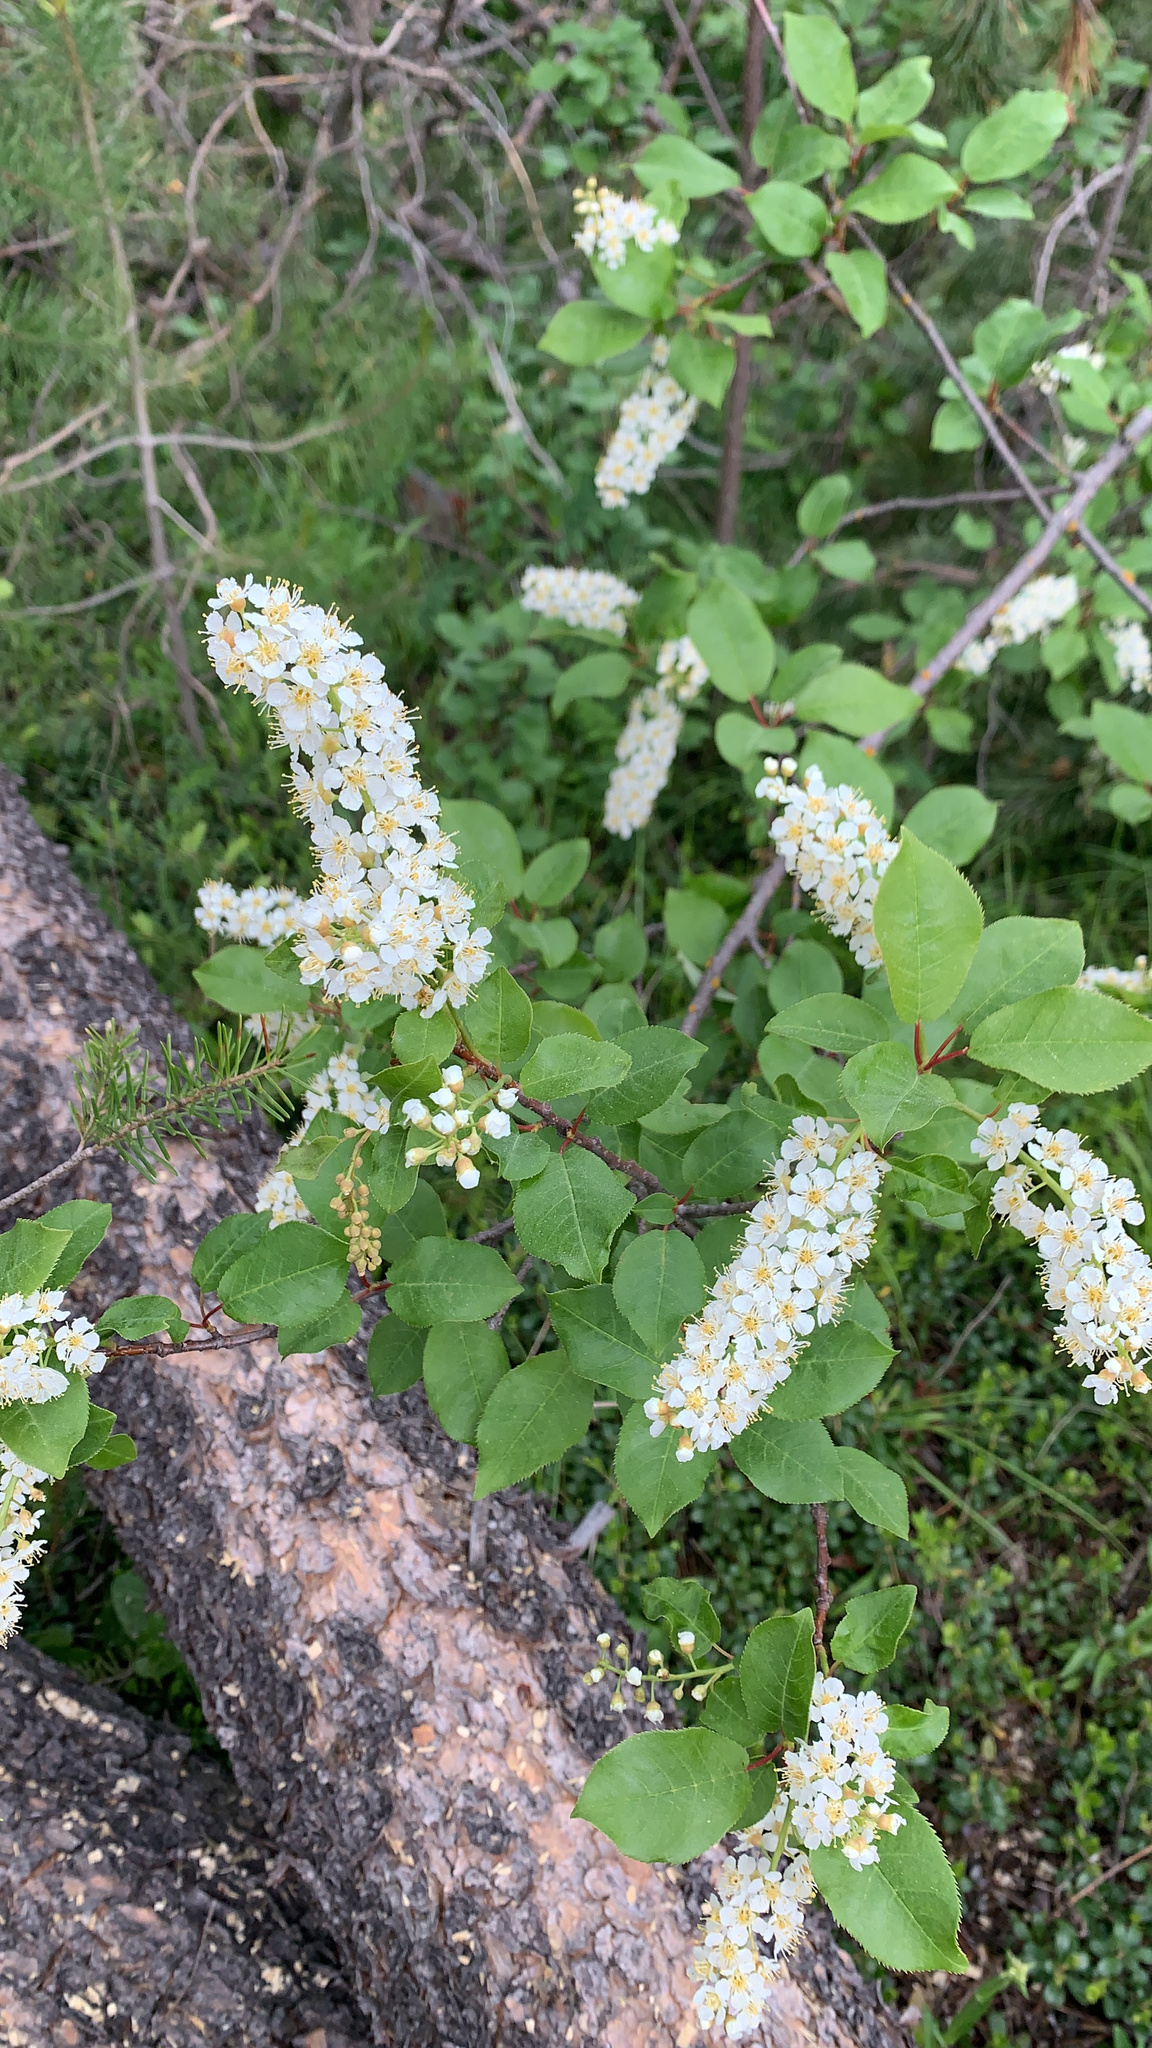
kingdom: Plantae
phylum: Tracheophyta
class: Magnoliopsida
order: Rosales
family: Rosaceae
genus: Prunus
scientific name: Prunus virginiana
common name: Chokecherry
